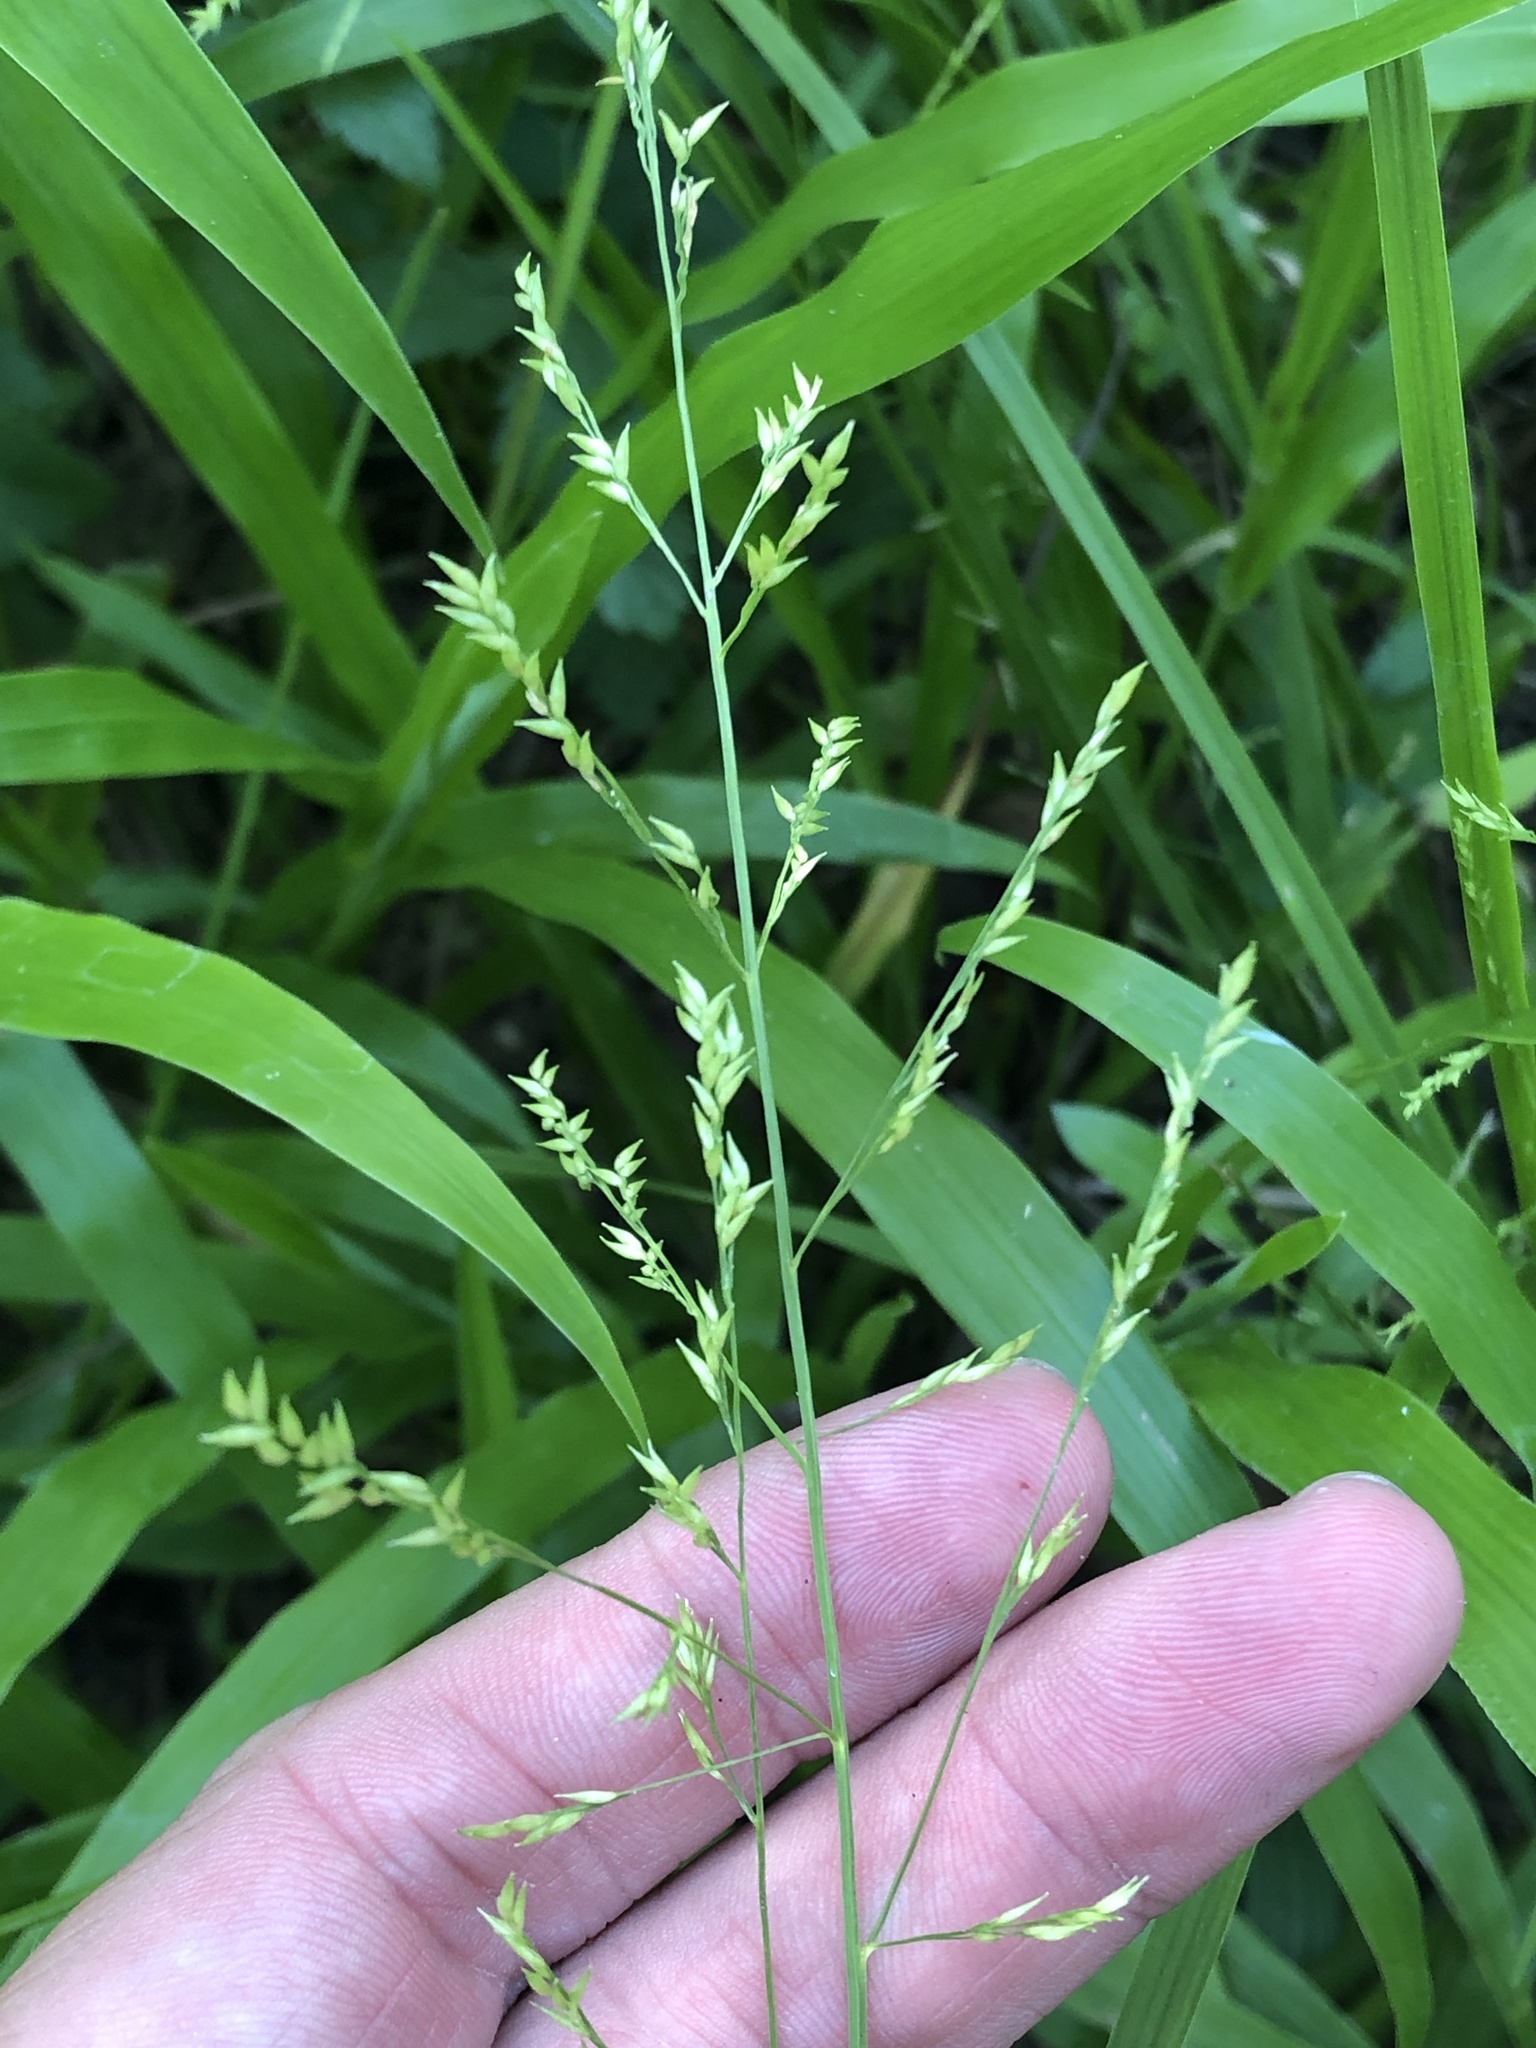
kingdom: Plantae
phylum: Tracheophyta
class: Liliopsida
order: Poales
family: Poaceae
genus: Coleataenia
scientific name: Coleataenia anceps
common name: Beaked panic grass
